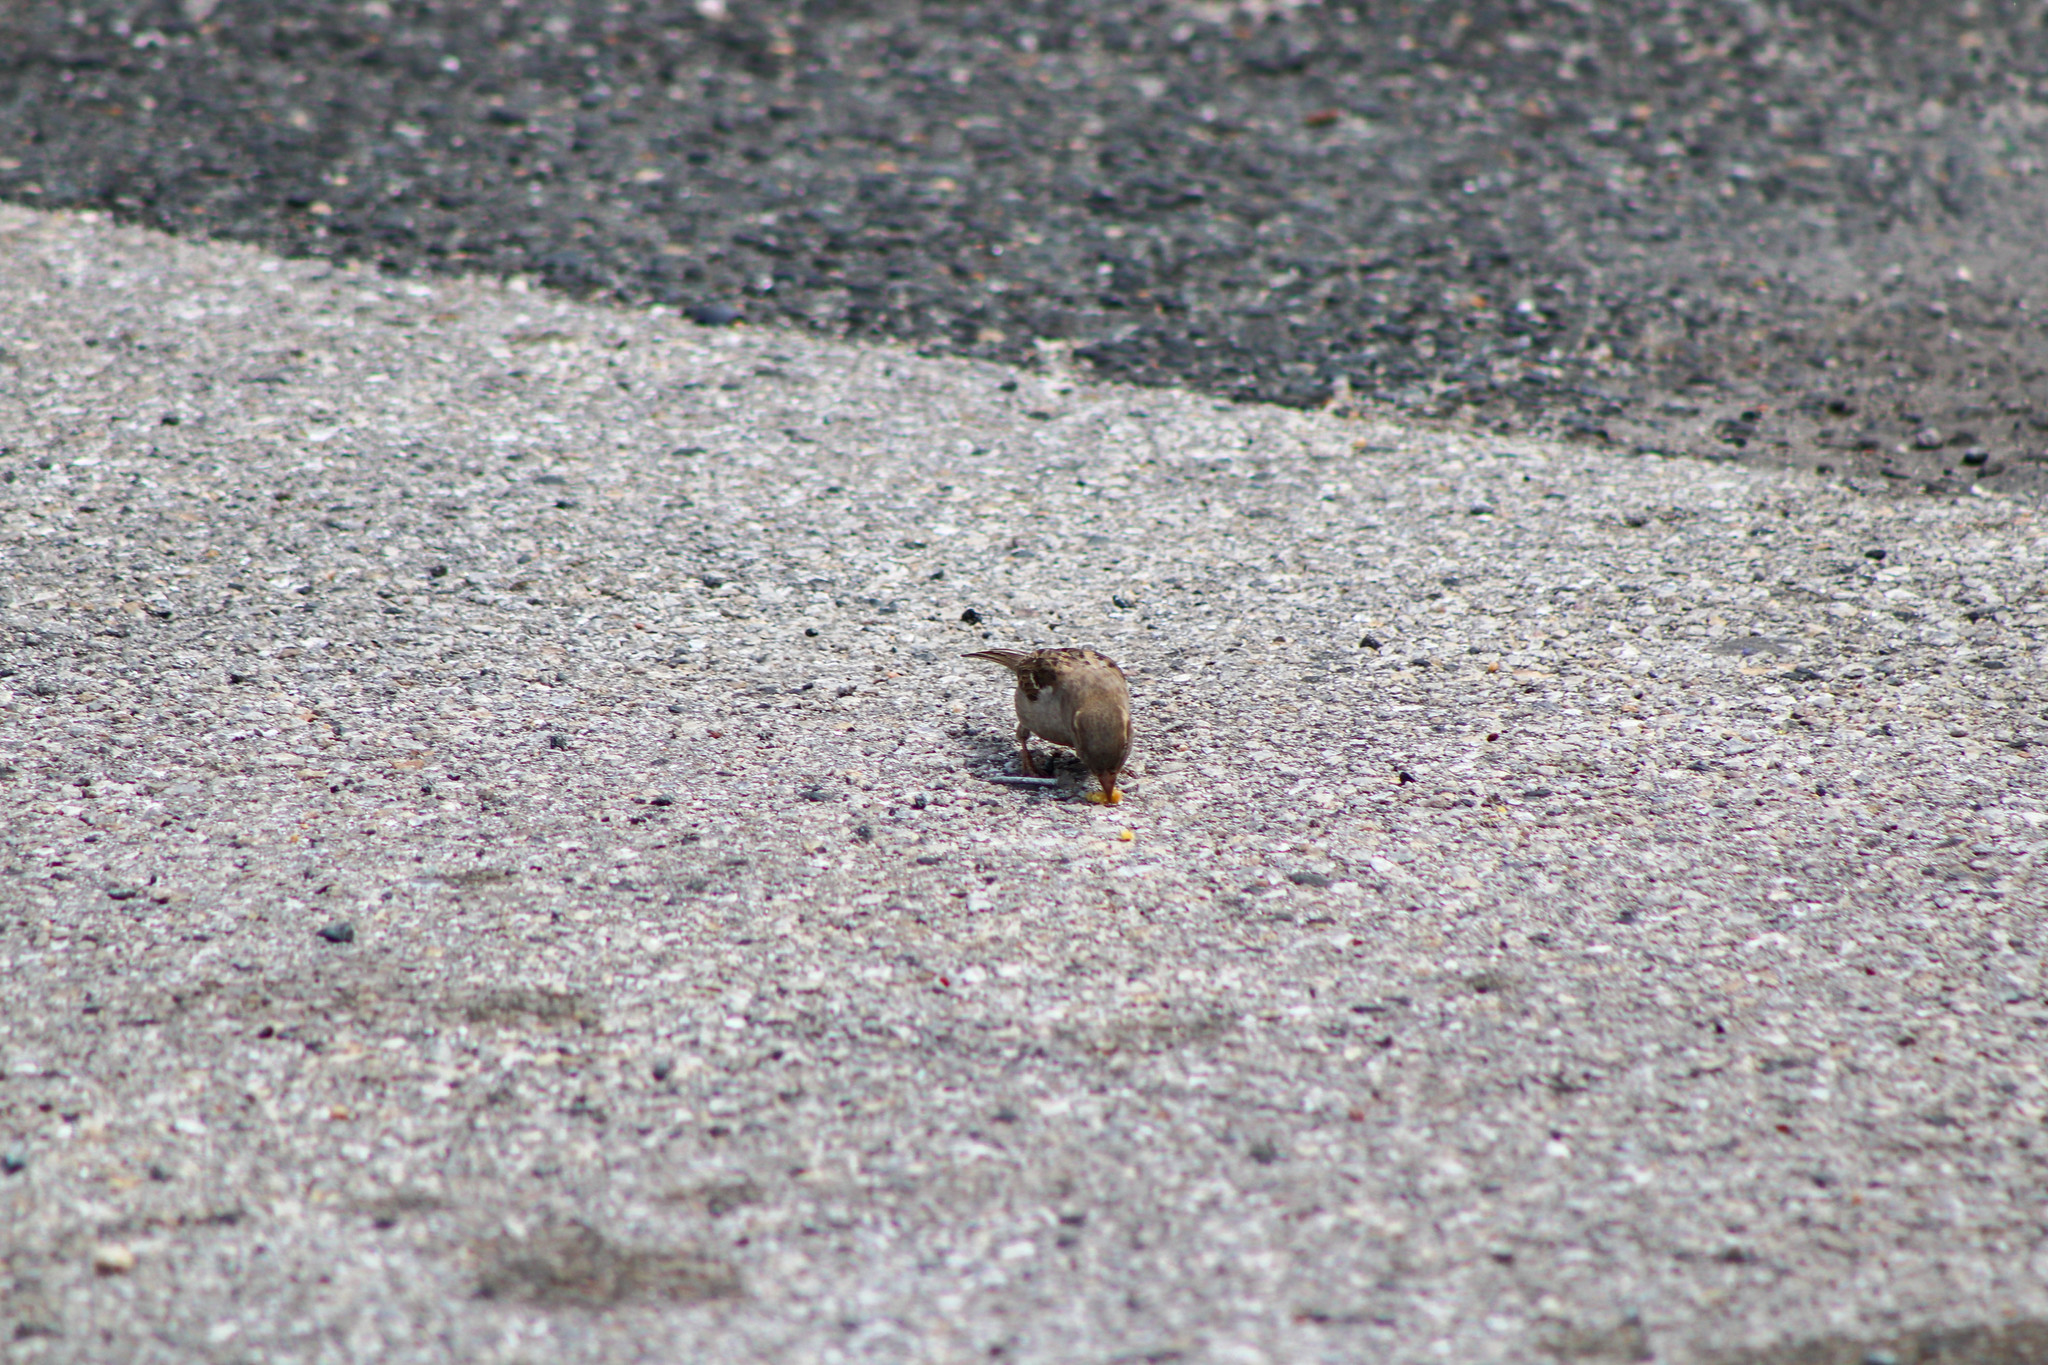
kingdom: Animalia
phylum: Chordata
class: Aves
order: Passeriformes
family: Passeridae
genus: Passer
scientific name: Passer domesticus
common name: House sparrow
